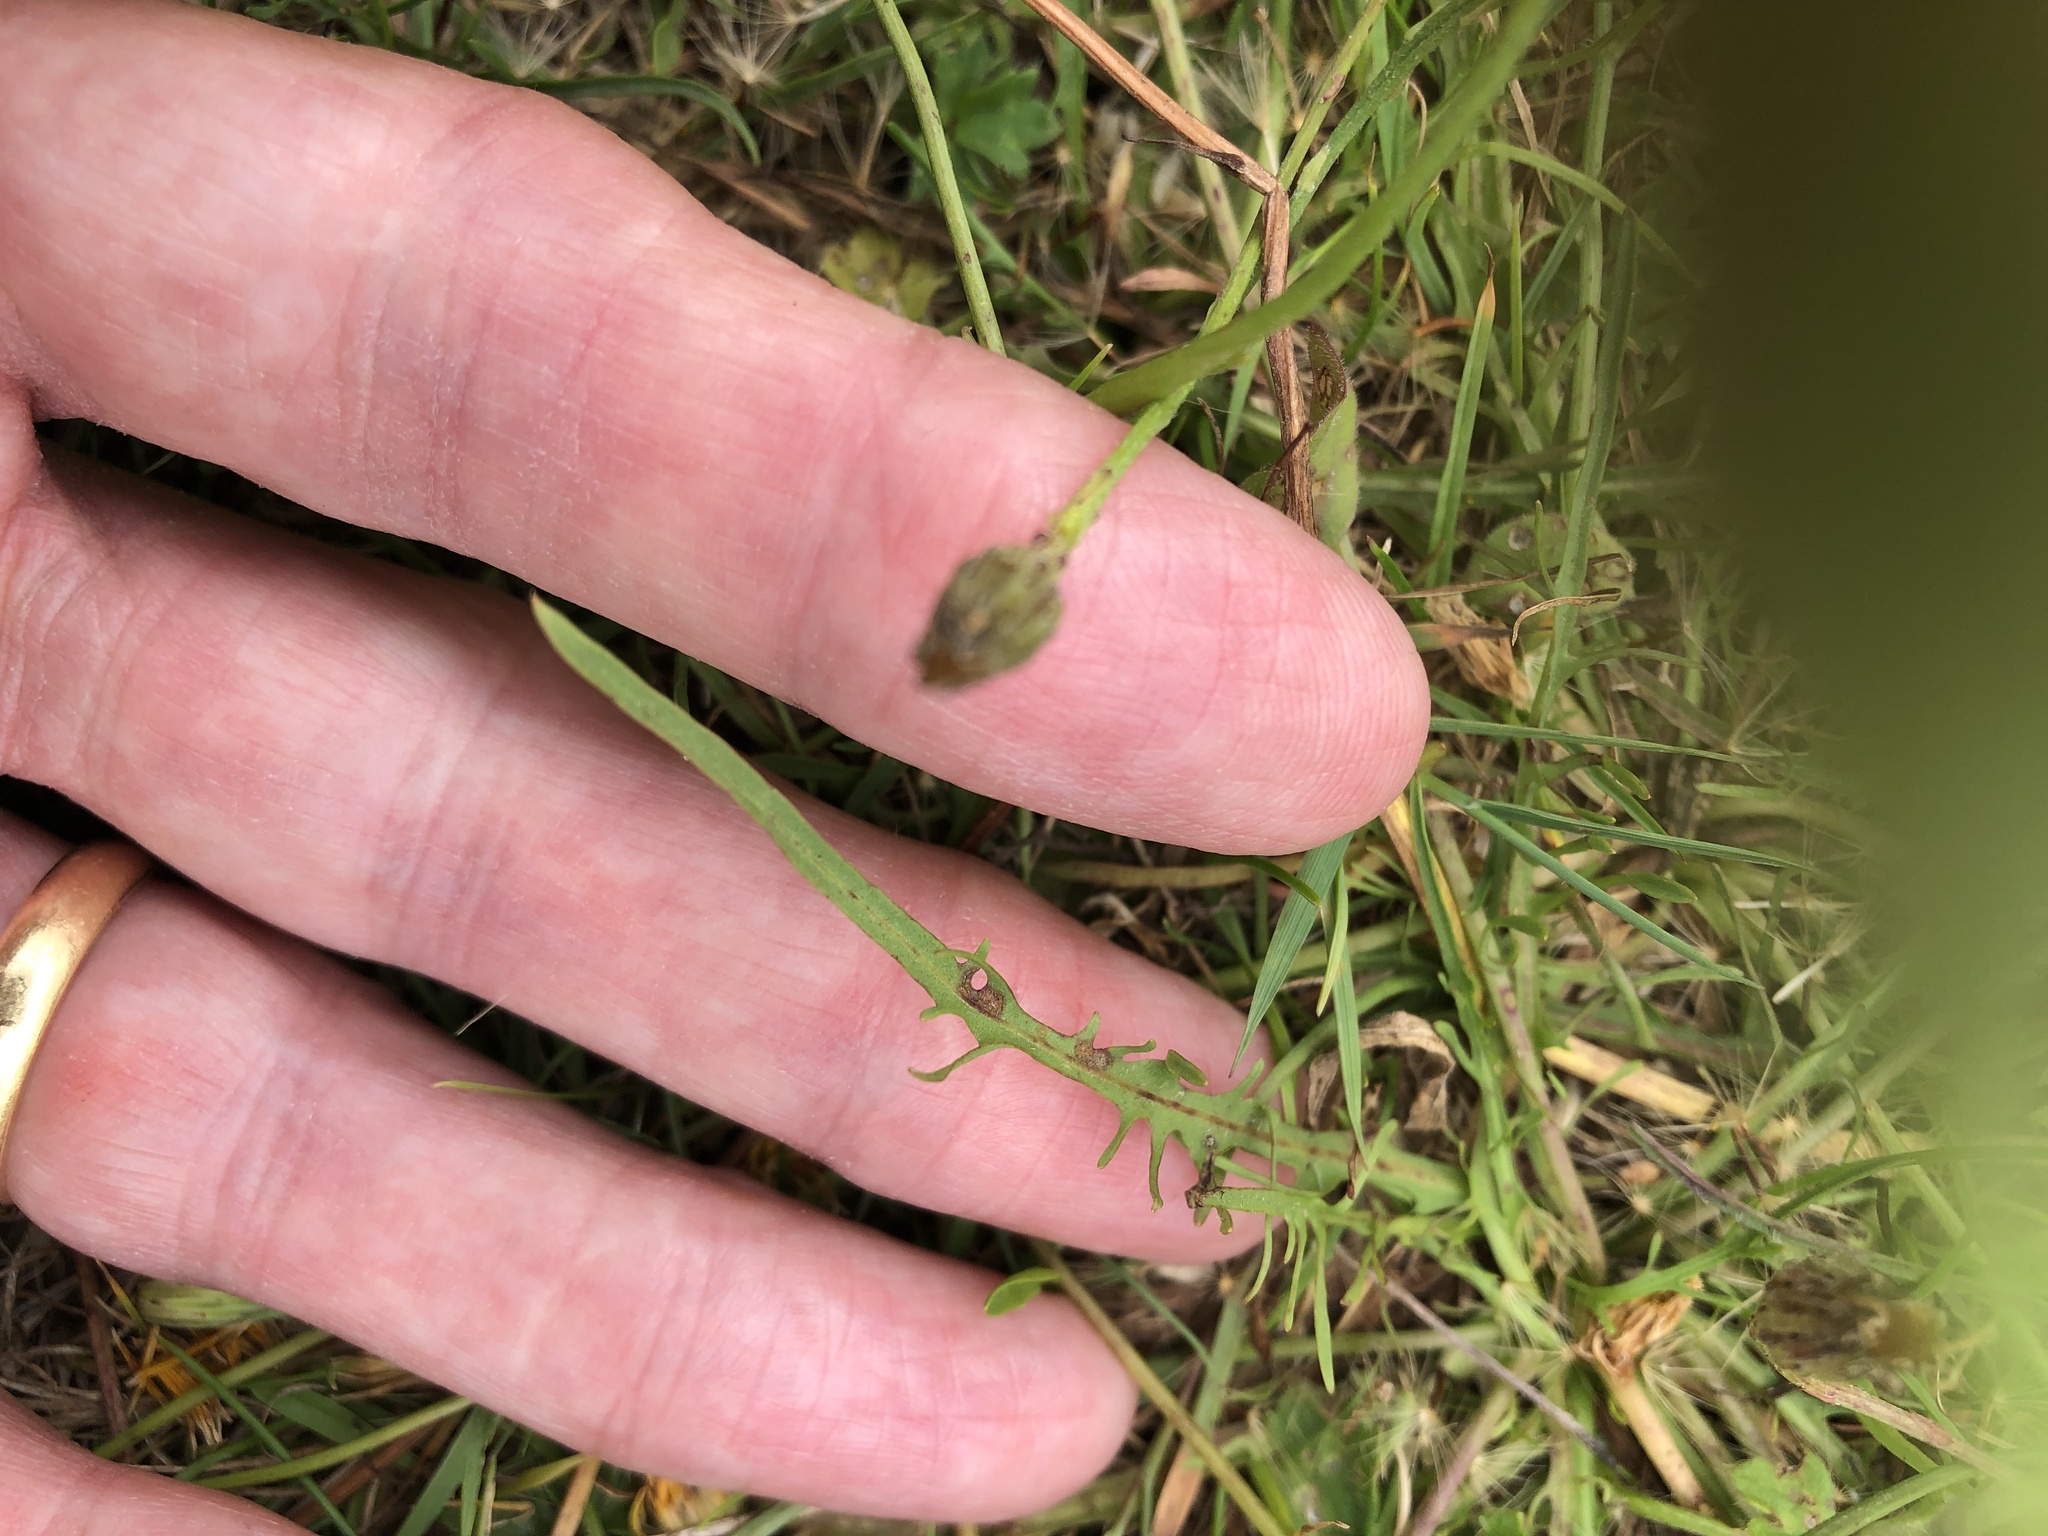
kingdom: Plantae
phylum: Tracheophyta
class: Magnoliopsida
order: Asterales
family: Asteraceae
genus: Scorzoneroides
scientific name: Scorzoneroides autumnalis
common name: Autumn hawkbit
